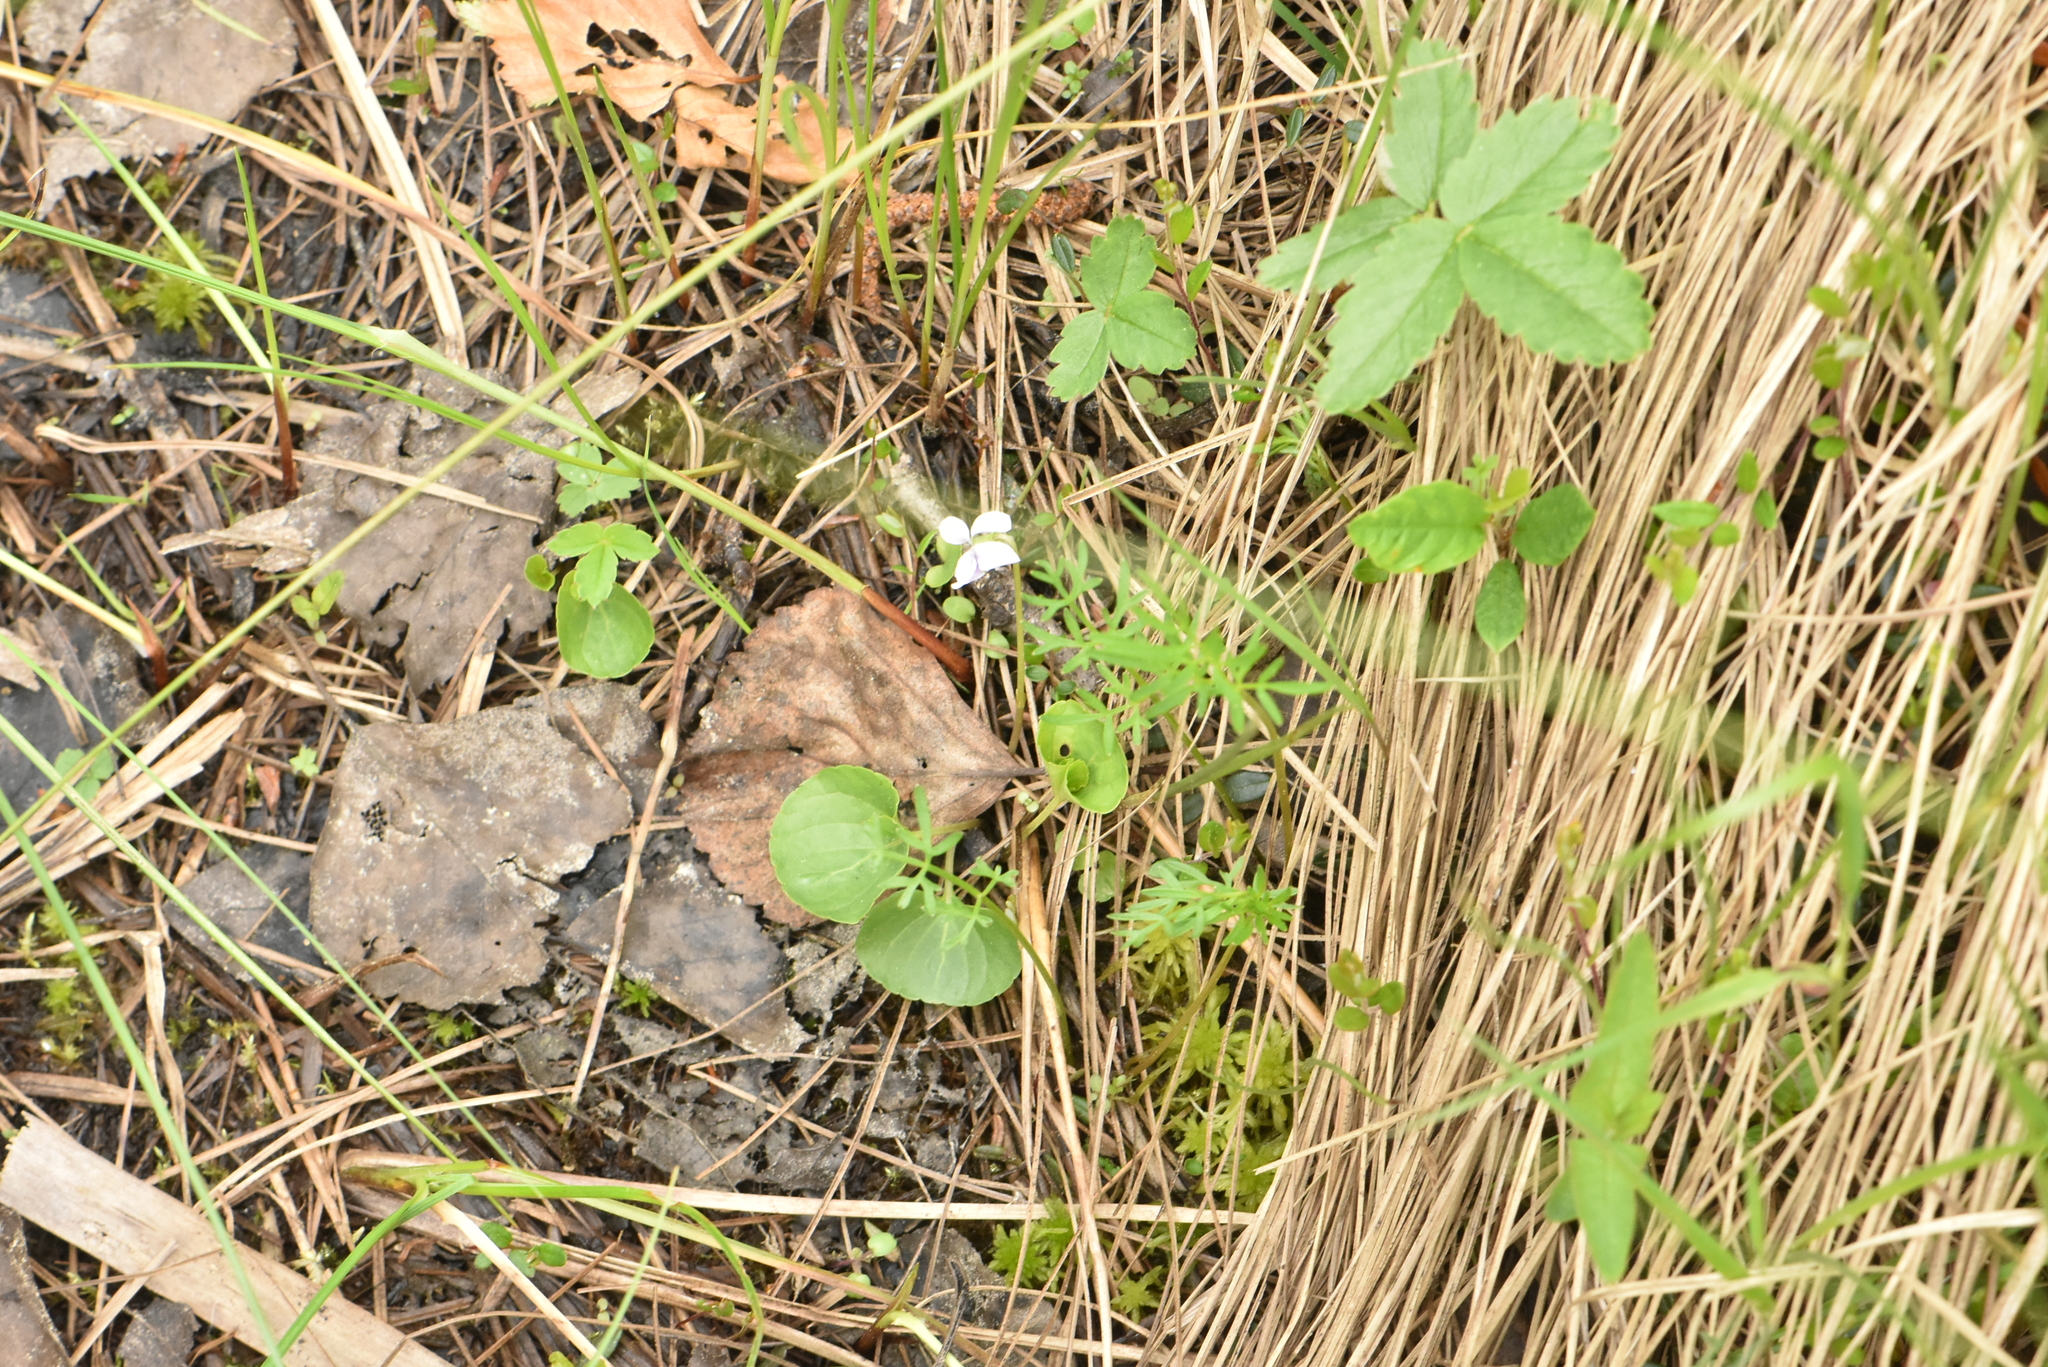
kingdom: Plantae
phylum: Tracheophyta
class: Magnoliopsida
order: Malpighiales
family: Violaceae
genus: Viola
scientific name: Viola palustris
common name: Marsh violet
